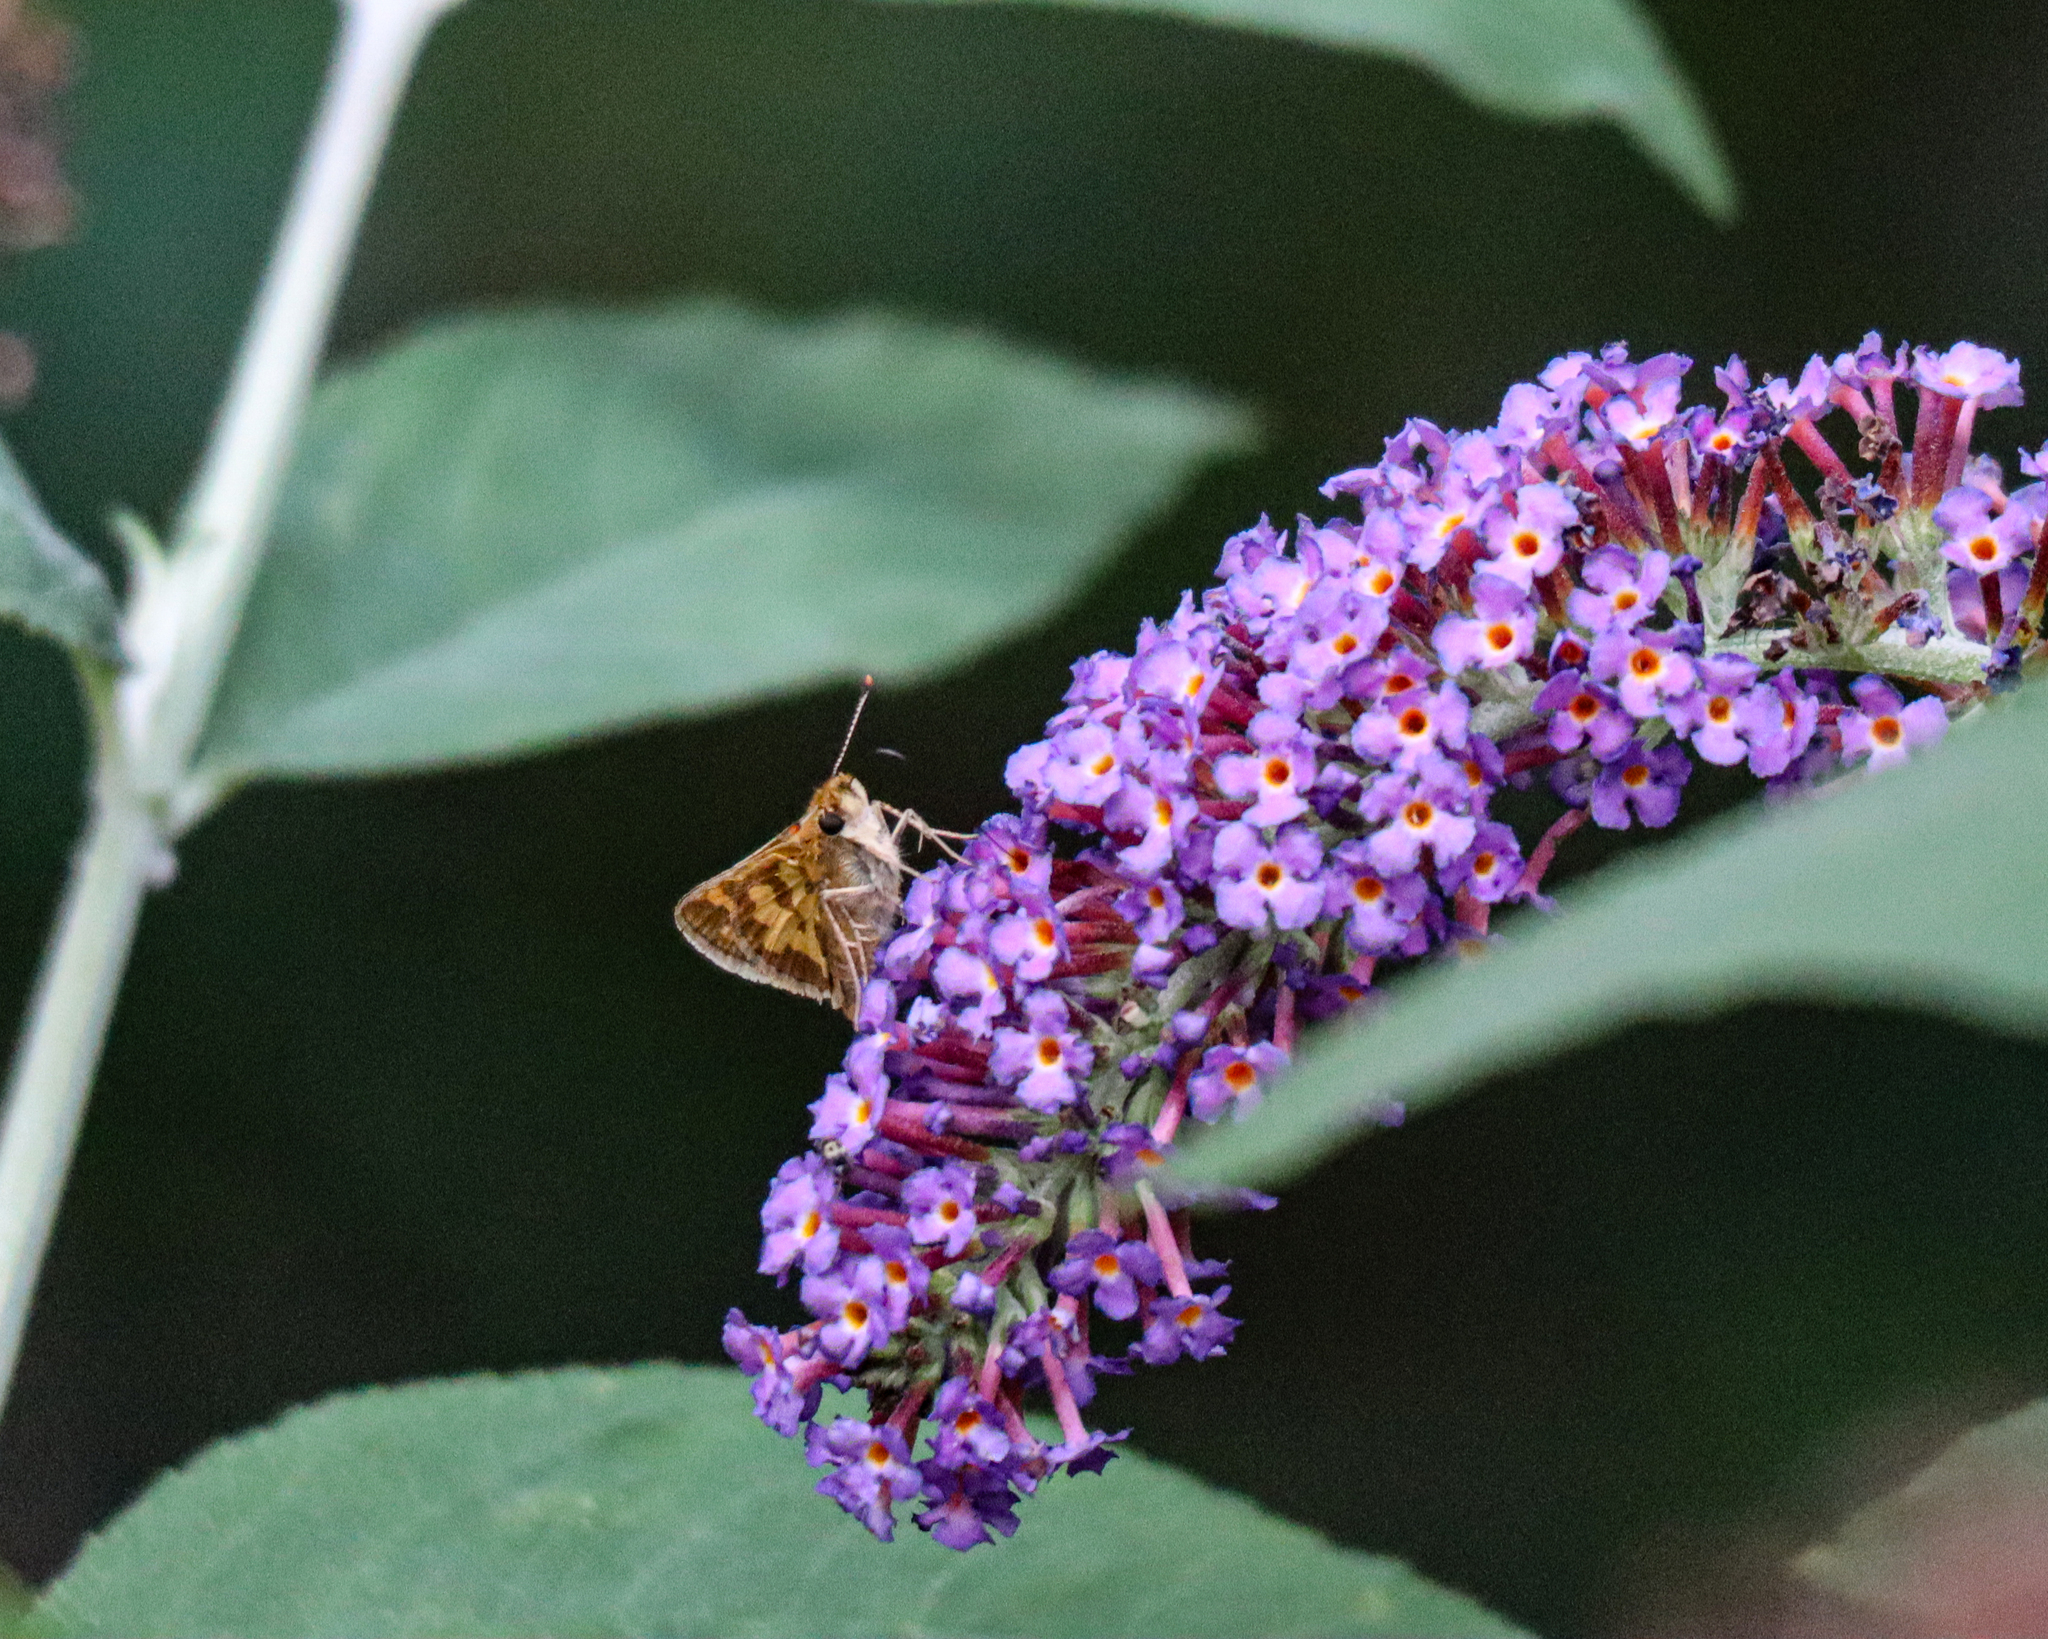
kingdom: Animalia
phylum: Arthropoda
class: Insecta
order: Lepidoptera
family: Hesperiidae
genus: Polites
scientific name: Polites coras
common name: Peck's skipper
